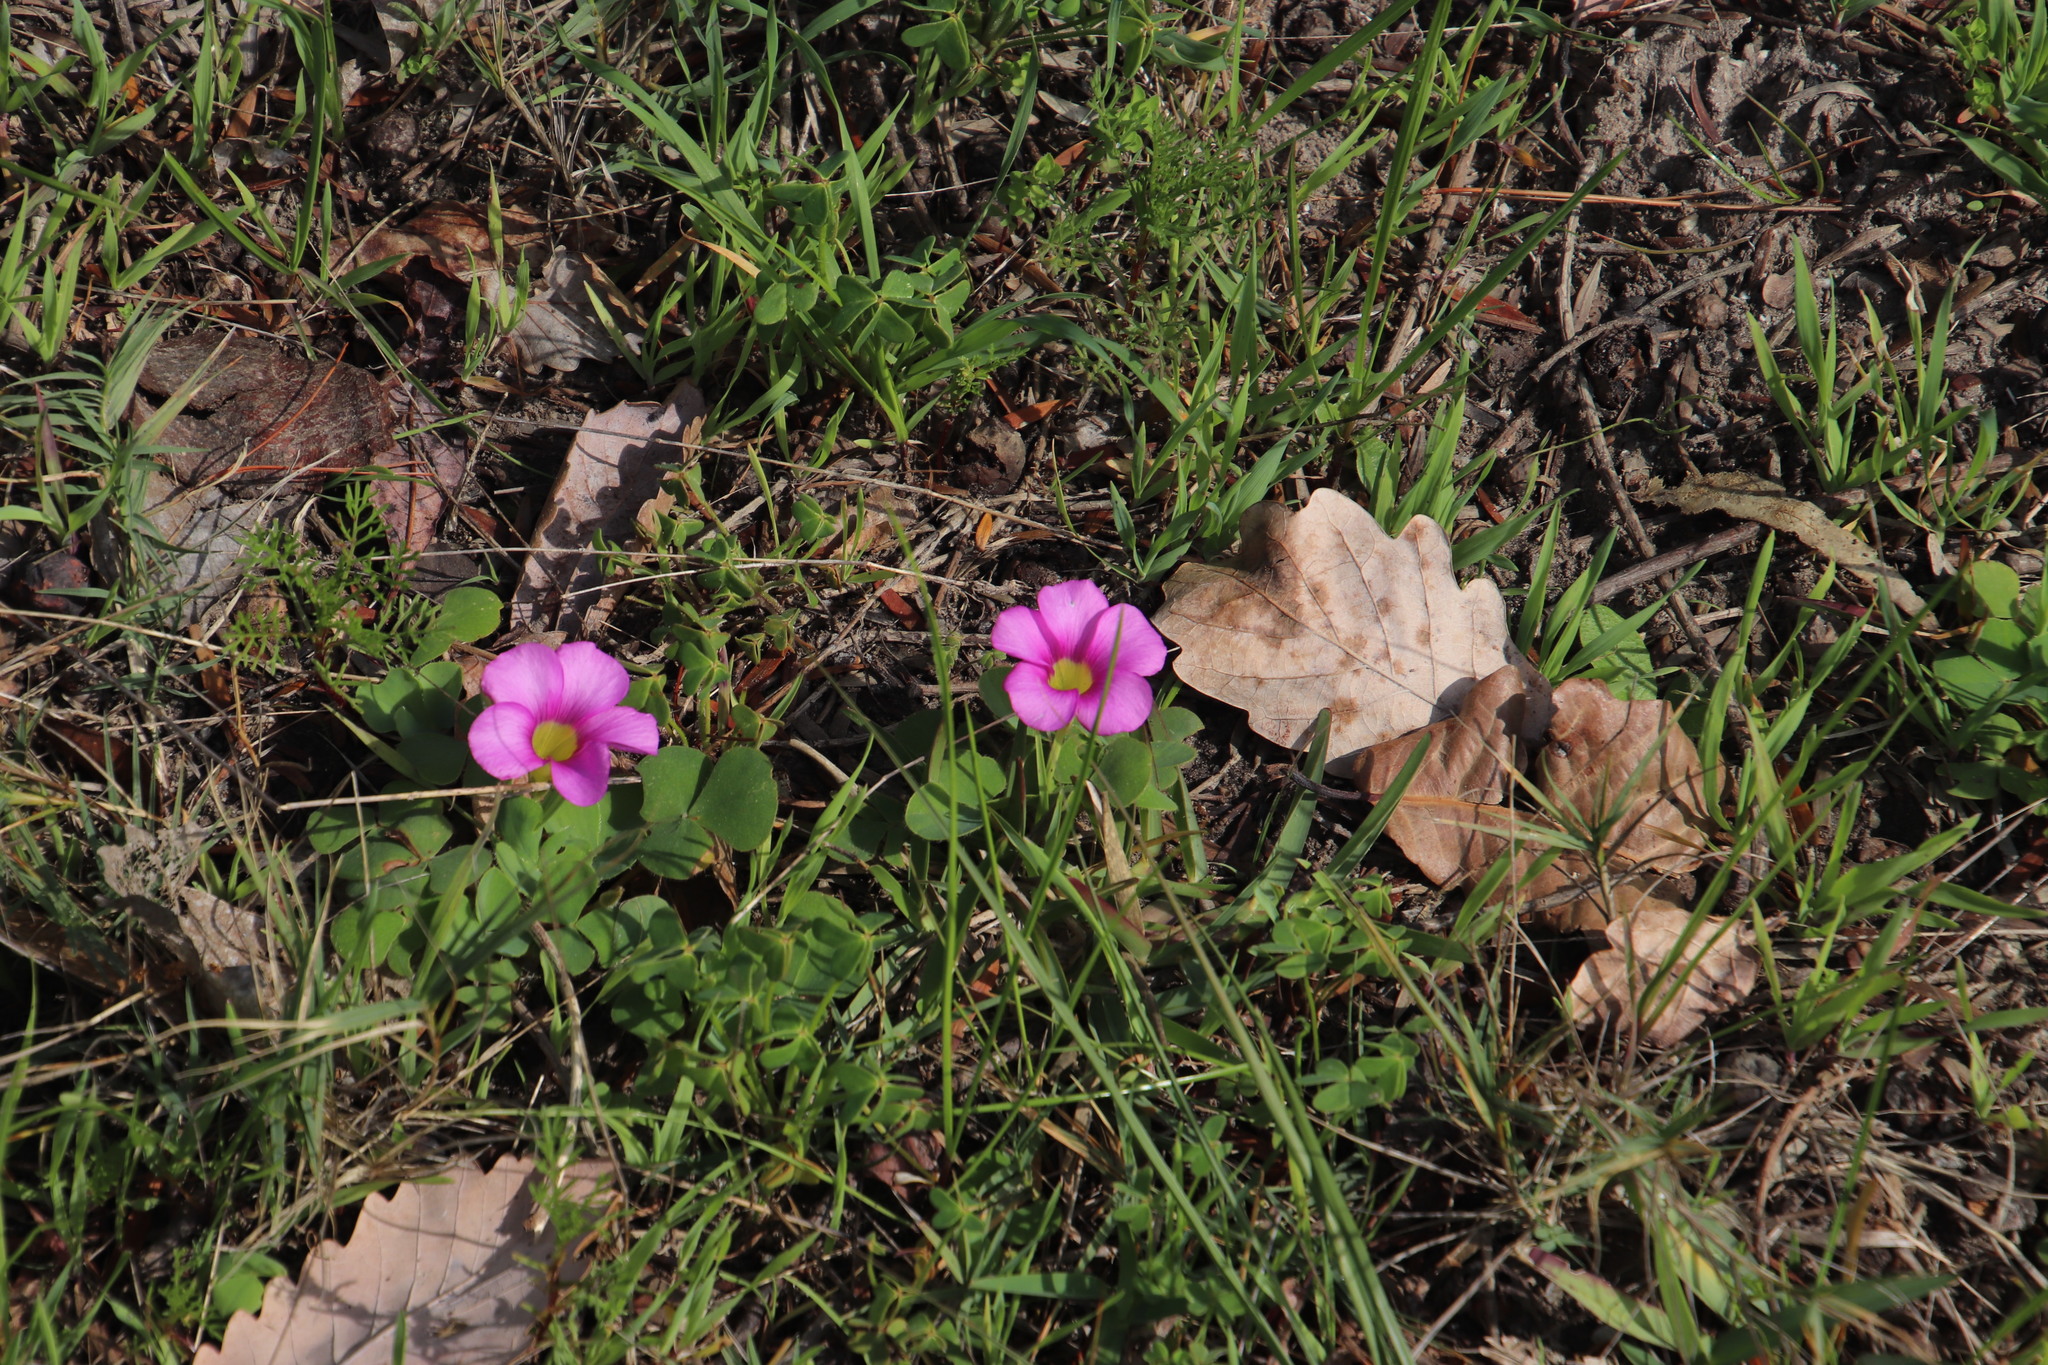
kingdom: Plantae
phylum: Tracheophyta
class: Magnoliopsida
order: Oxalidales
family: Oxalidaceae
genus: Oxalis
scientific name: Oxalis purpurea
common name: Purple woodsorrel
